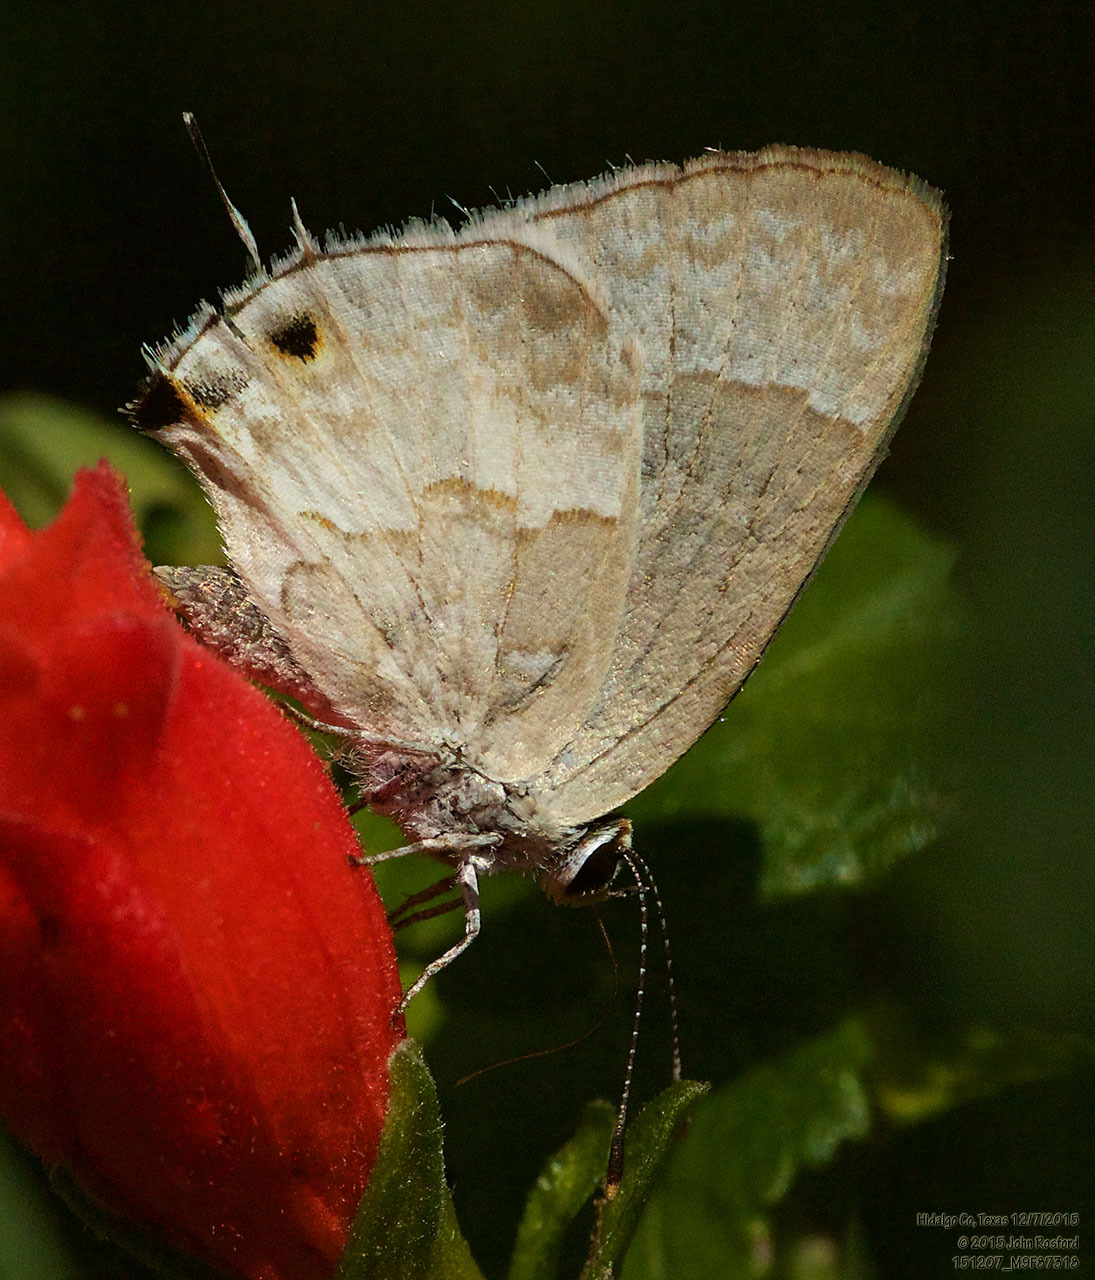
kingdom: Animalia
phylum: Arthropoda
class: Insecta
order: Lepidoptera
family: Lycaenidae
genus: Strymon
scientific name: Strymon albata
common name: White scrub-hairstreak
